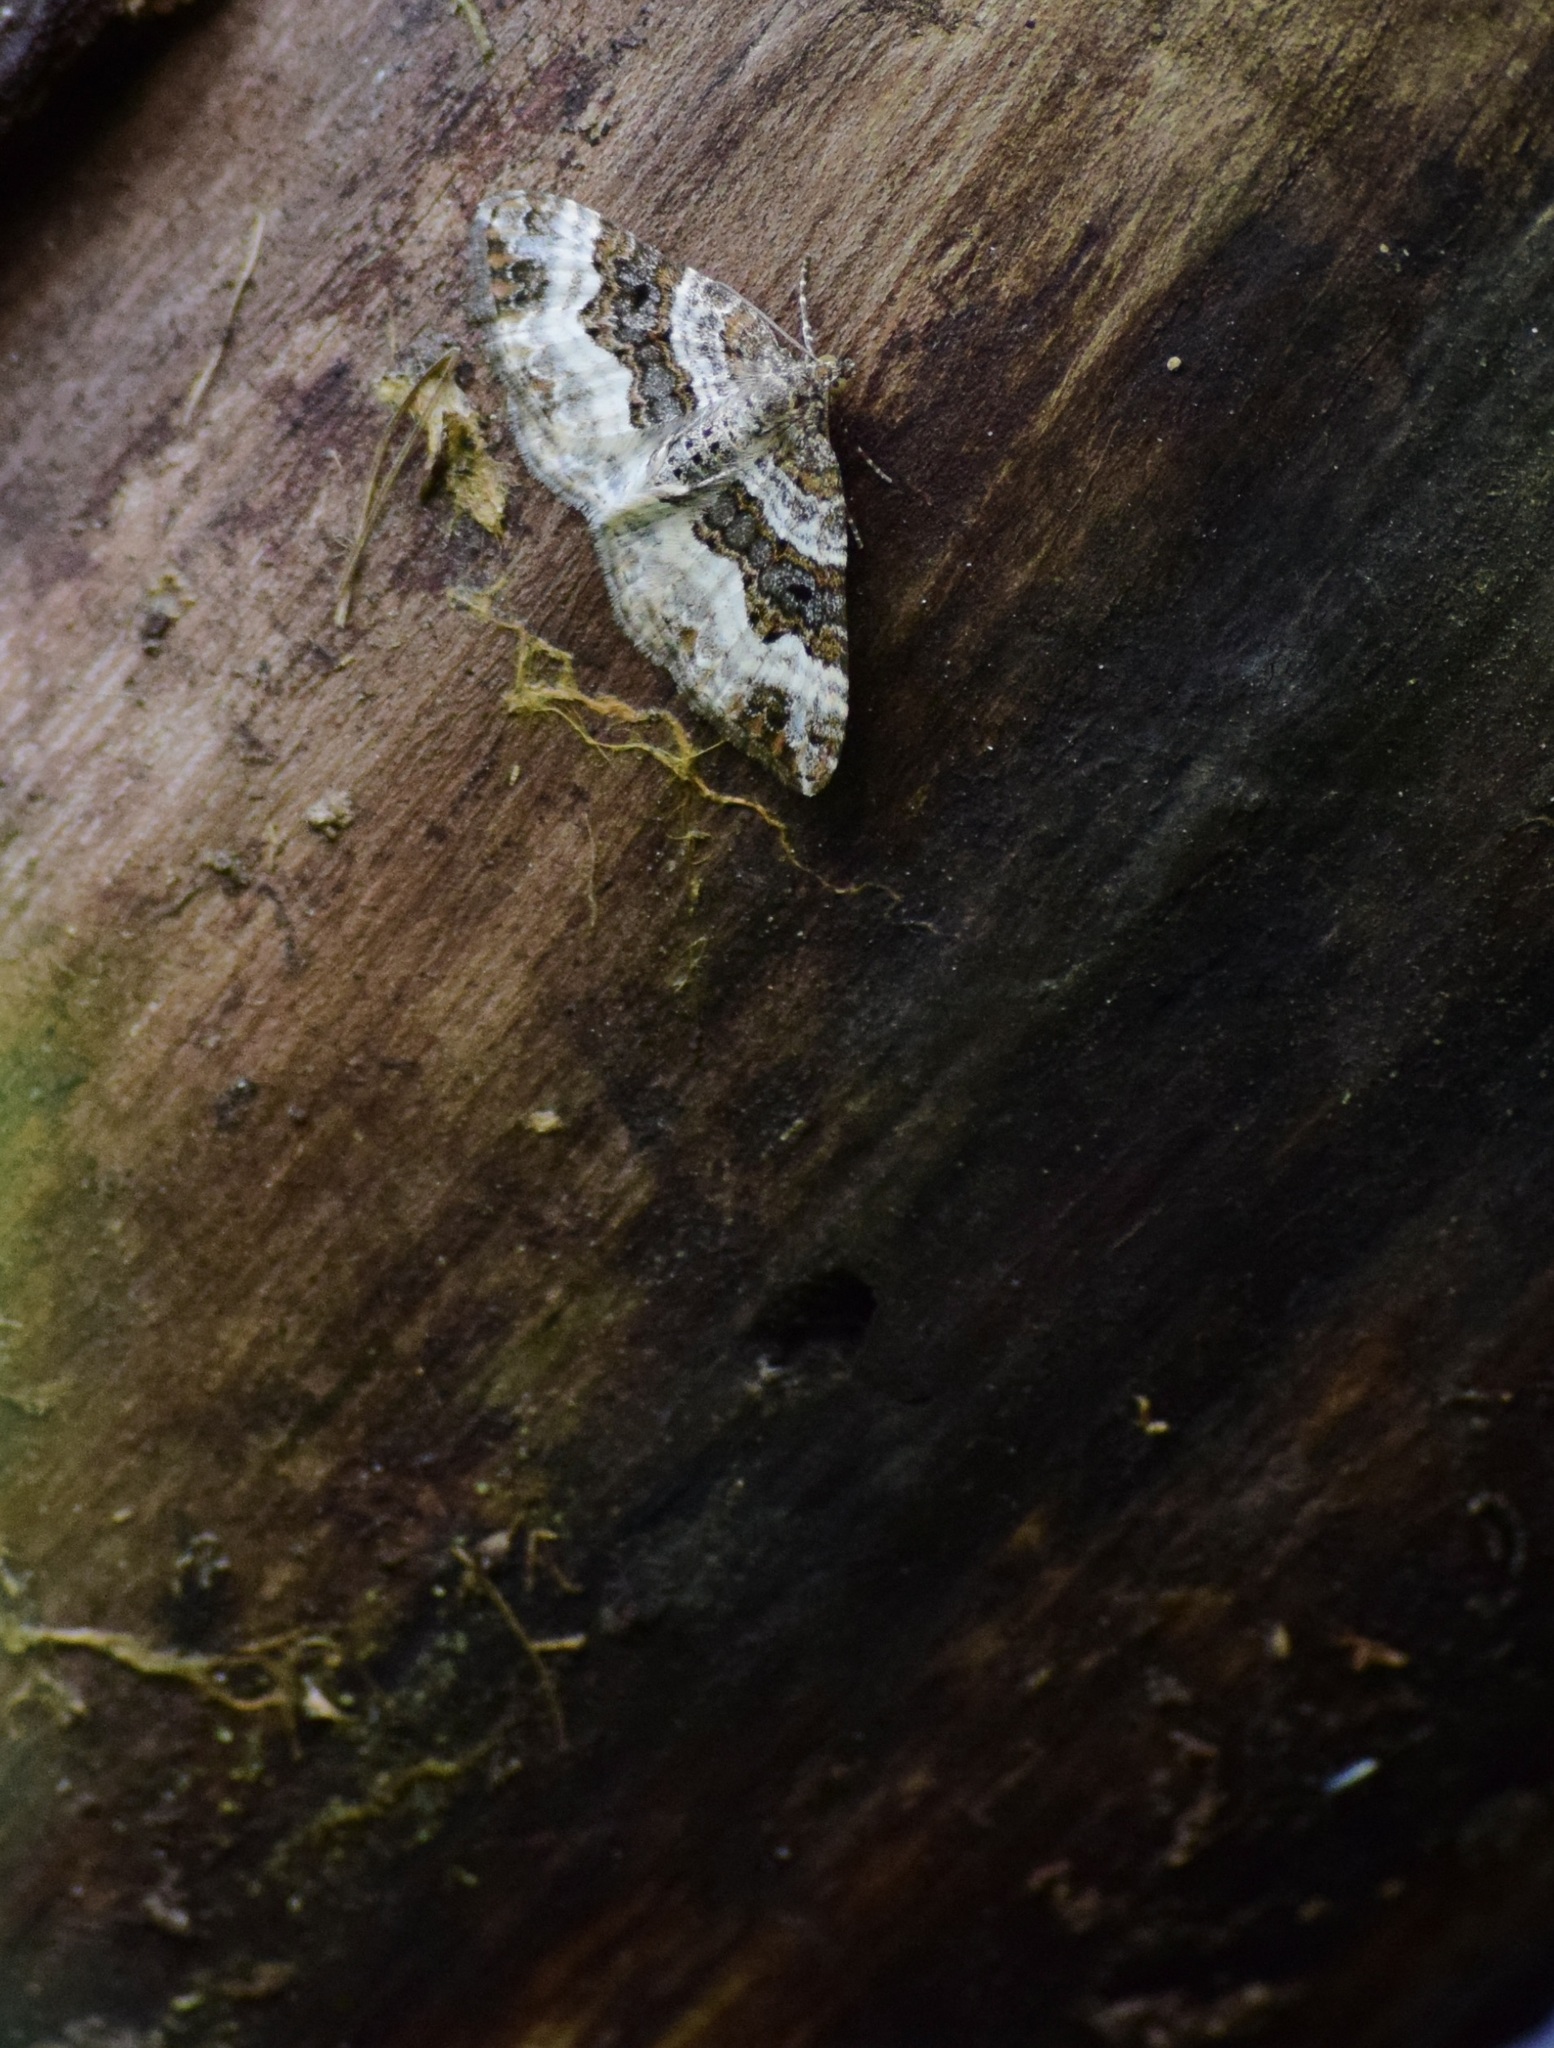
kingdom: Animalia
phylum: Arthropoda
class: Insecta
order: Lepidoptera
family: Geometridae
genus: Epirrhoe
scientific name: Epirrhoe alternata
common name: Common carpet
